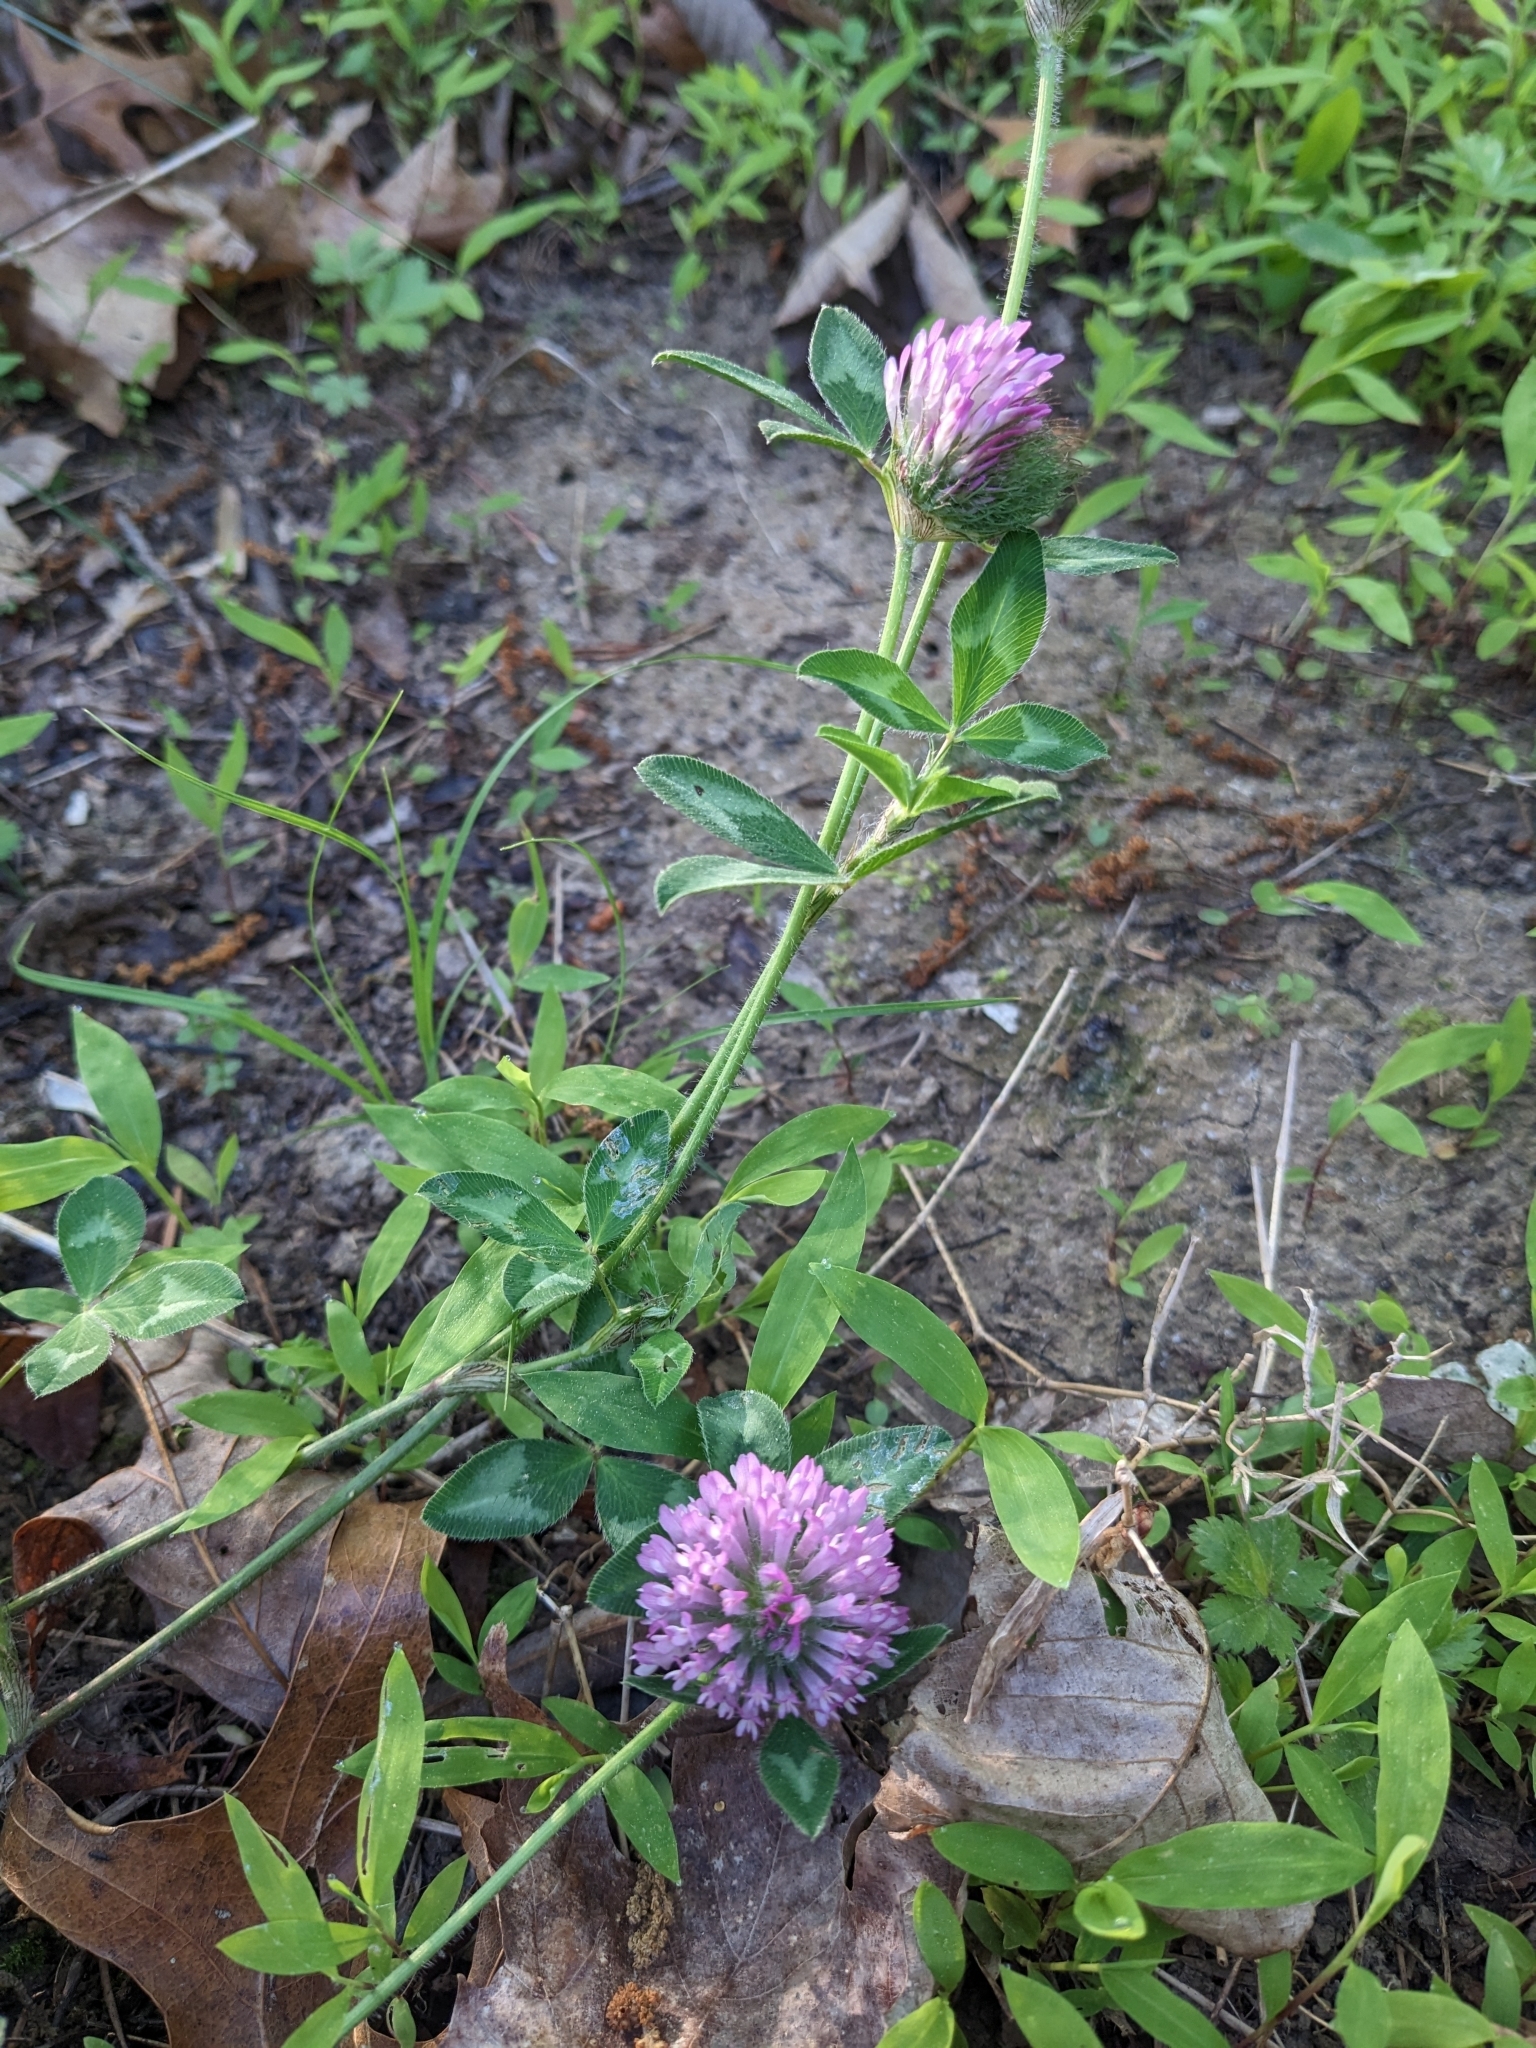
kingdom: Plantae
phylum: Tracheophyta
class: Magnoliopsida
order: Fabales
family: Fabaceae
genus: Trifolium
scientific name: Trifolium pratense
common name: Red clover
